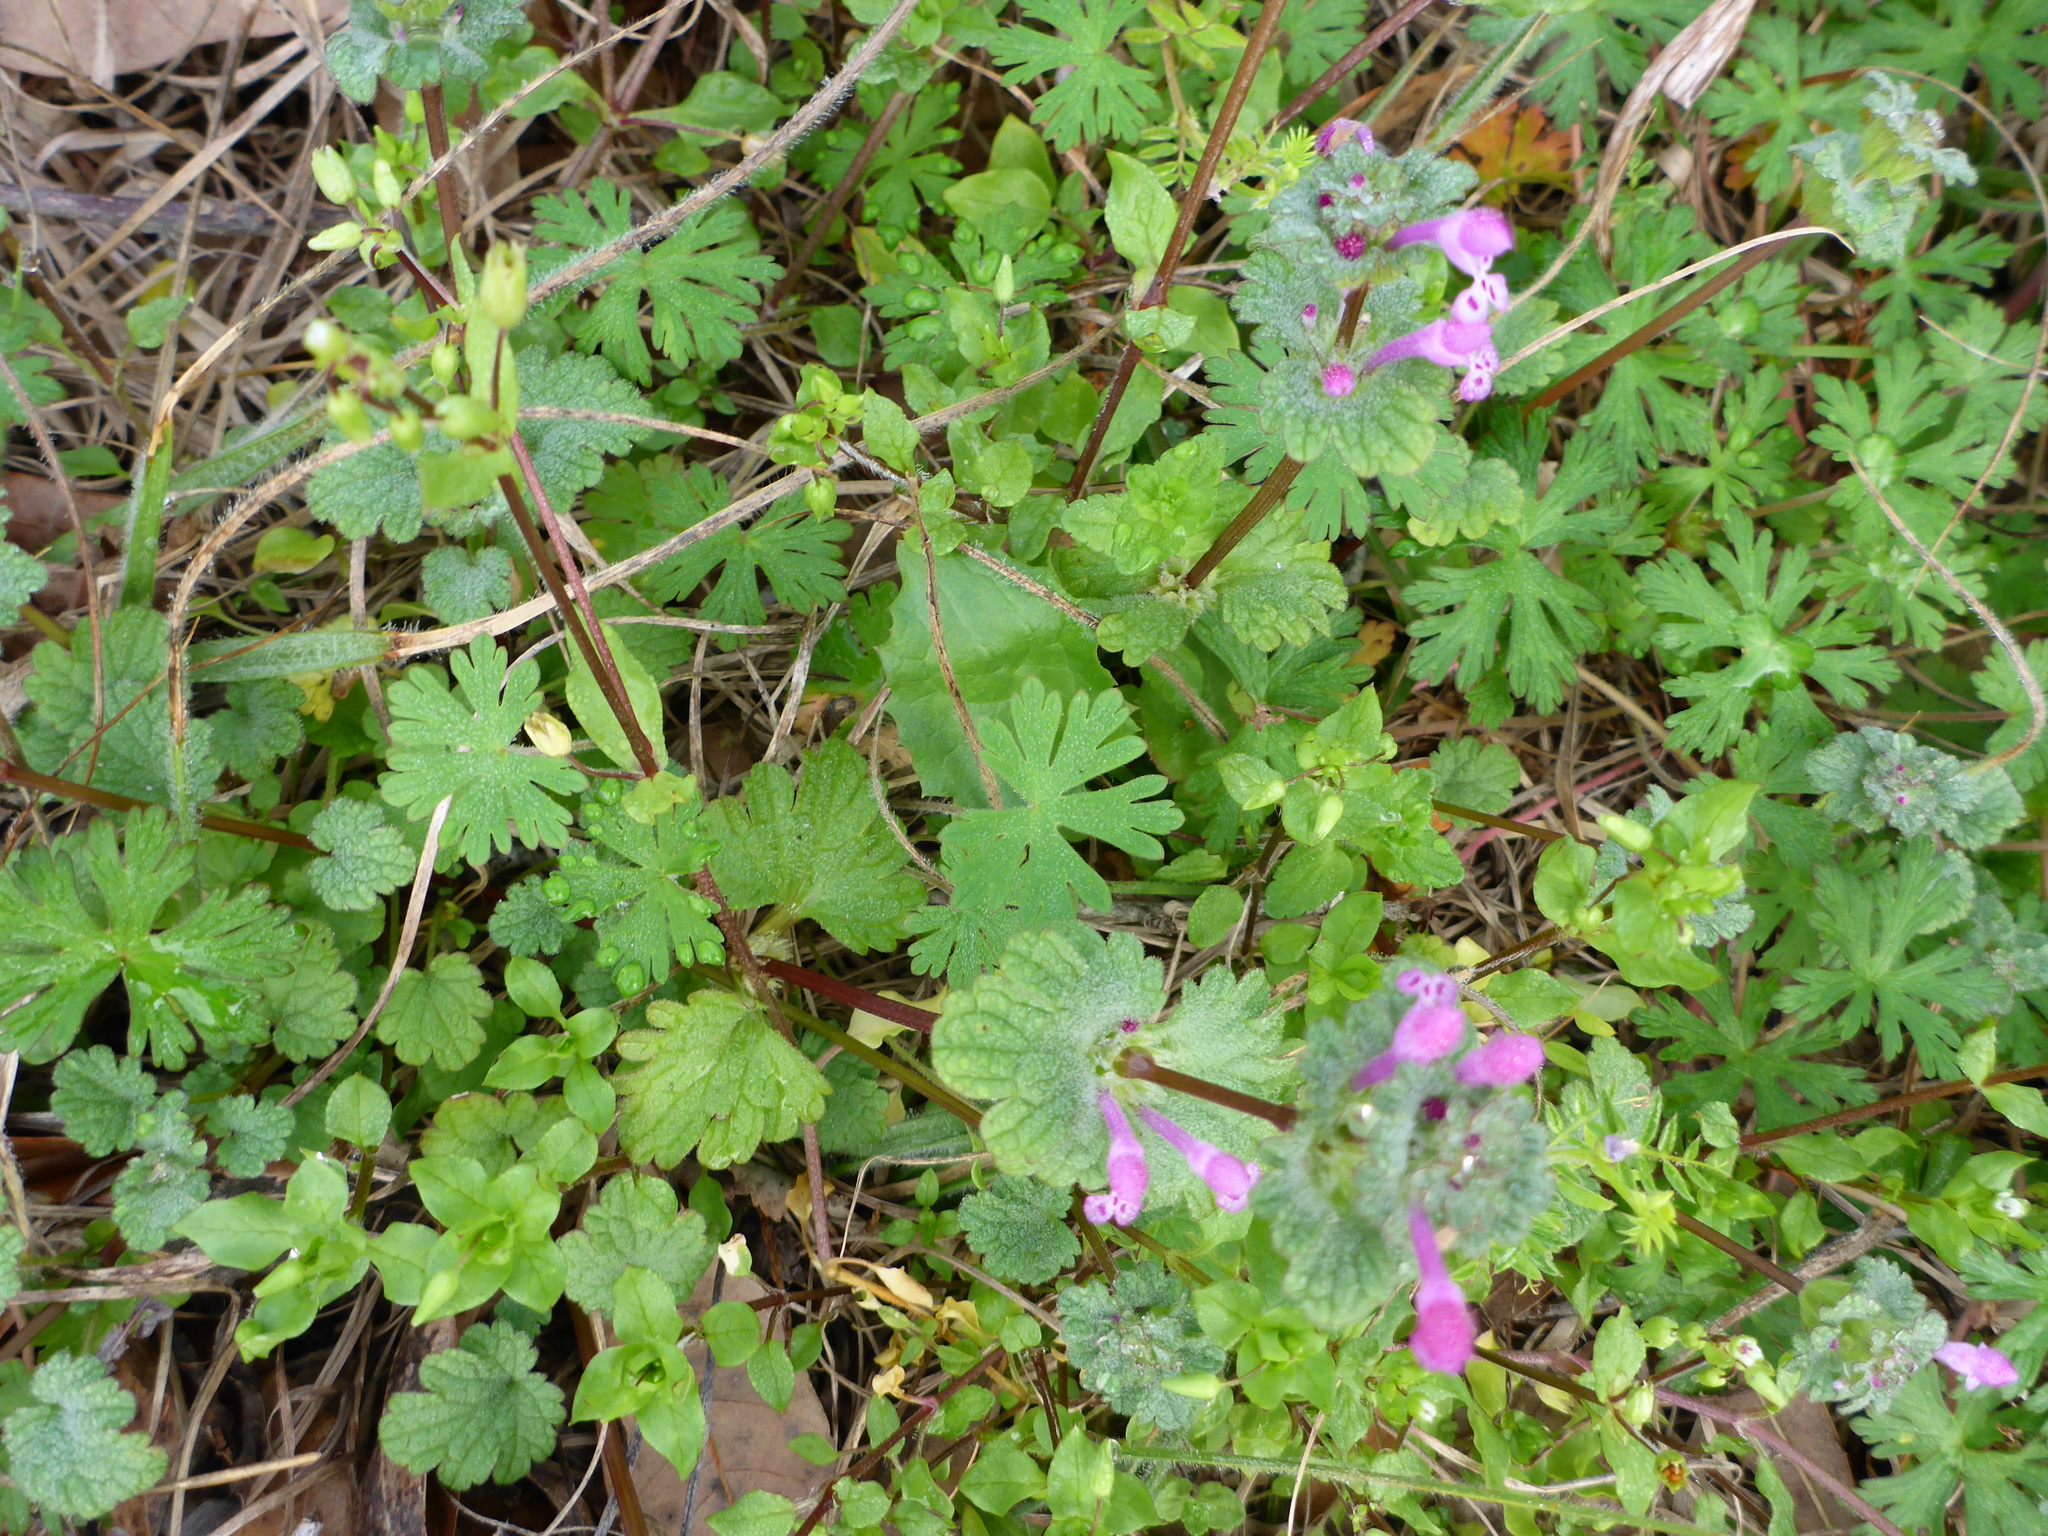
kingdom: Plantae
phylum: Tracheophyta
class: Magnoliopsida
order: Lamiales
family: Lamiaceae
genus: Lamium
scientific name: Lamium amplexicaule
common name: Henbit dead-nettle
